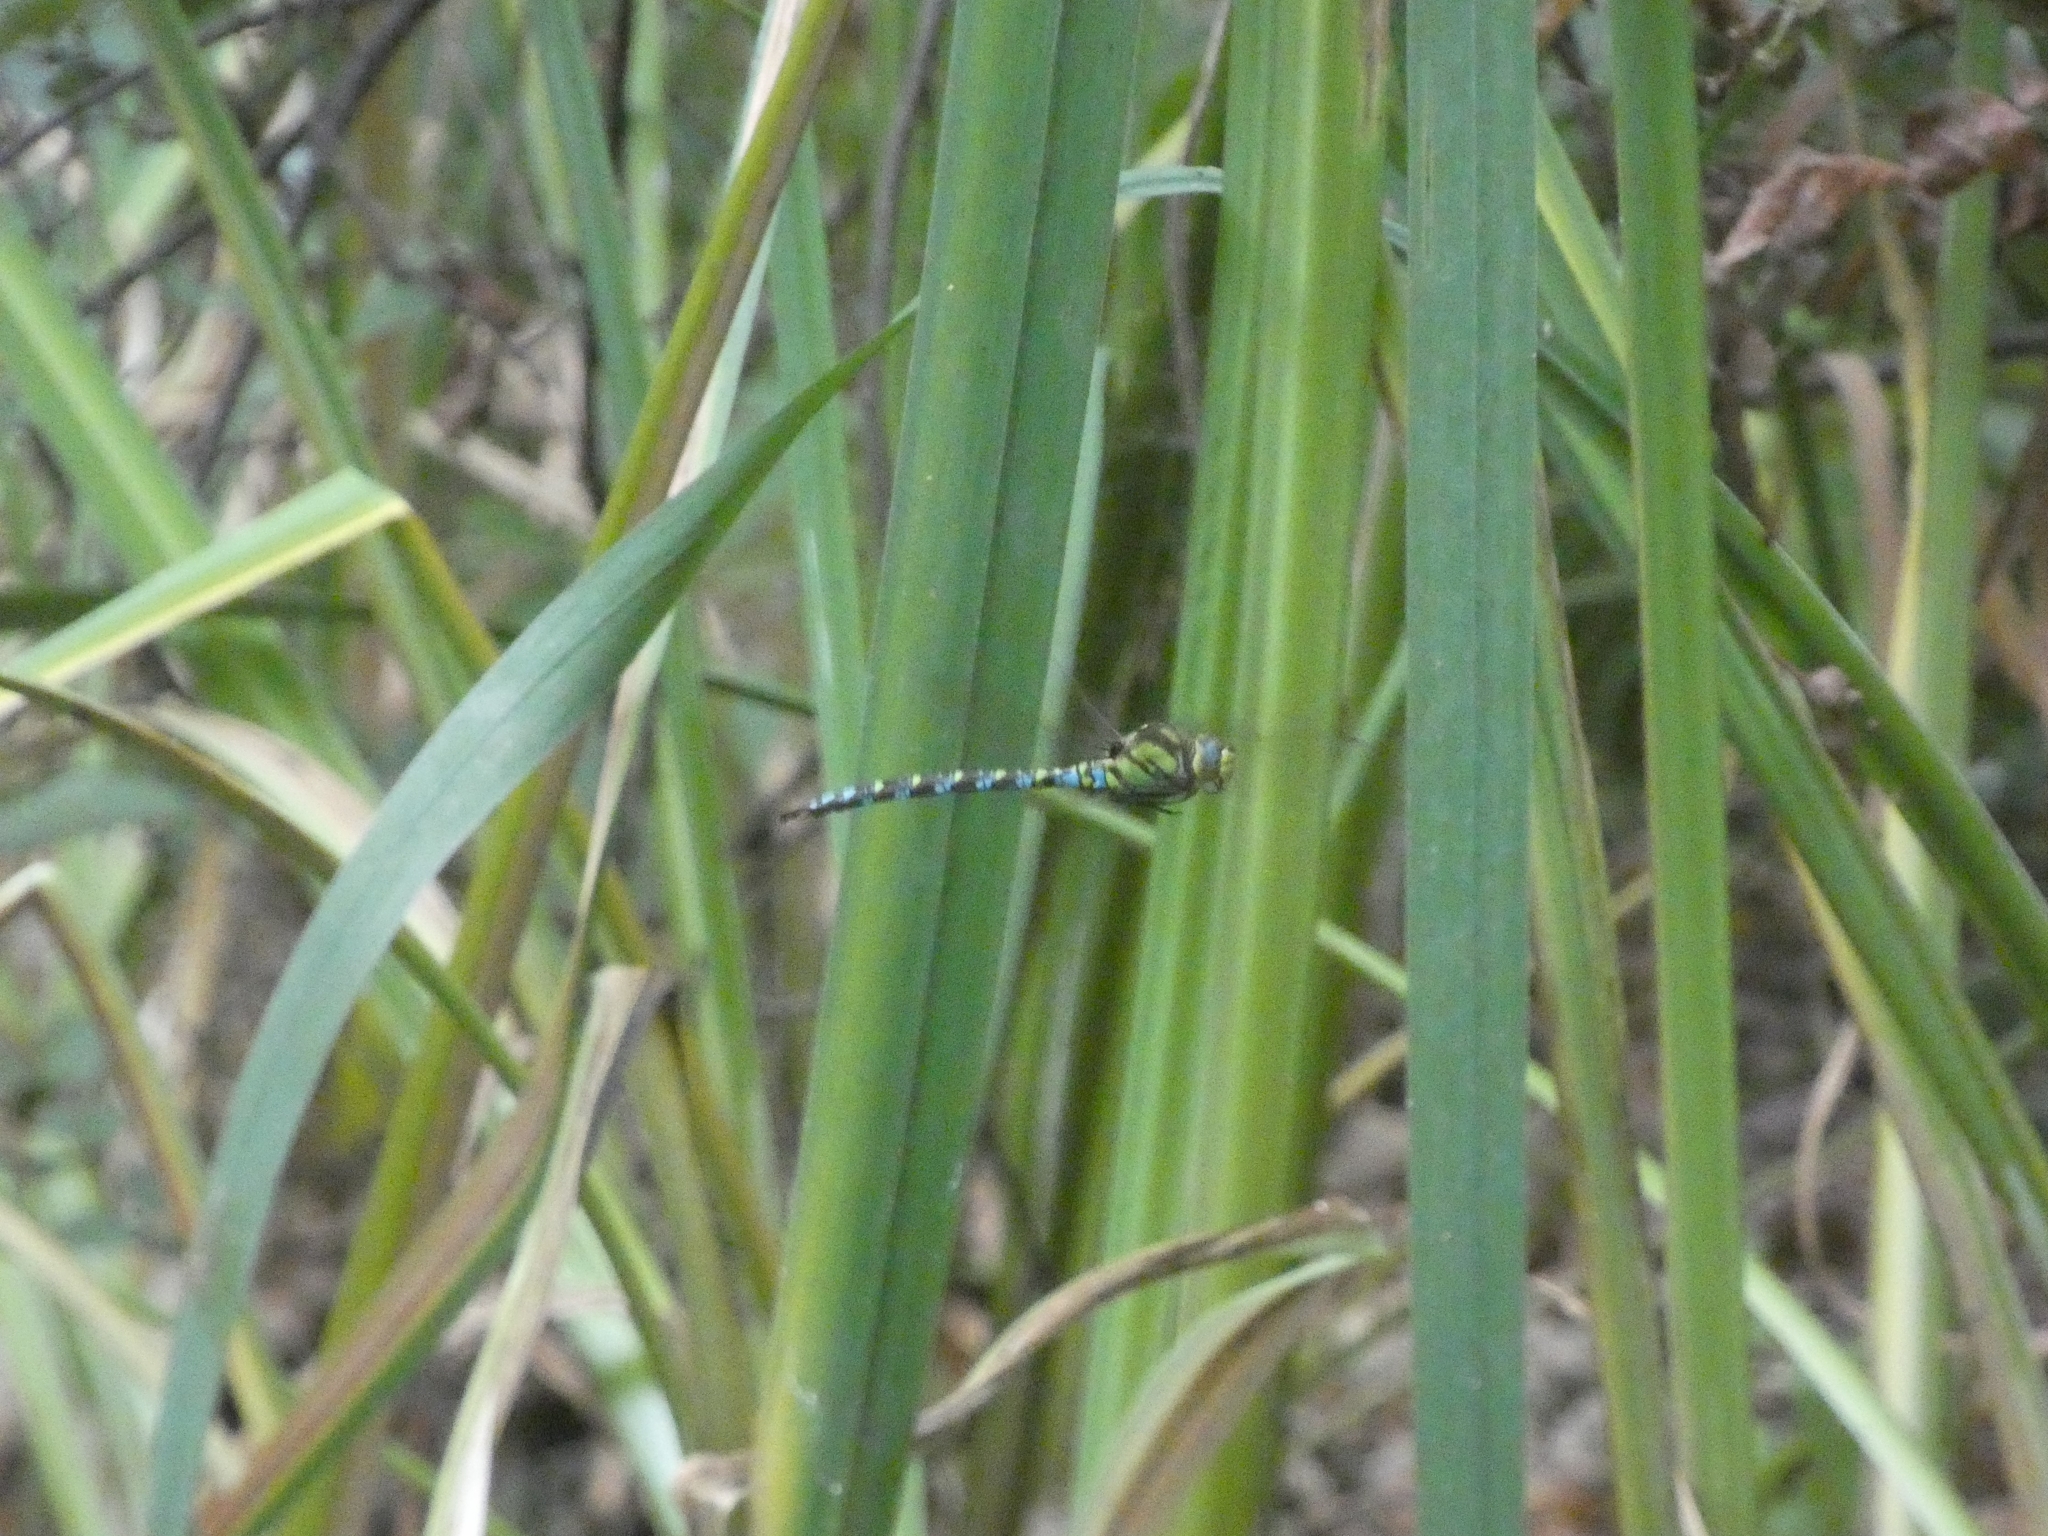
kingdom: Animalia
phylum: Arthropoda
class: Insecta
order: Odonata
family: Aeshnidae
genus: Aeshna
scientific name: Aeshna cyanea
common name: Southern hawker
